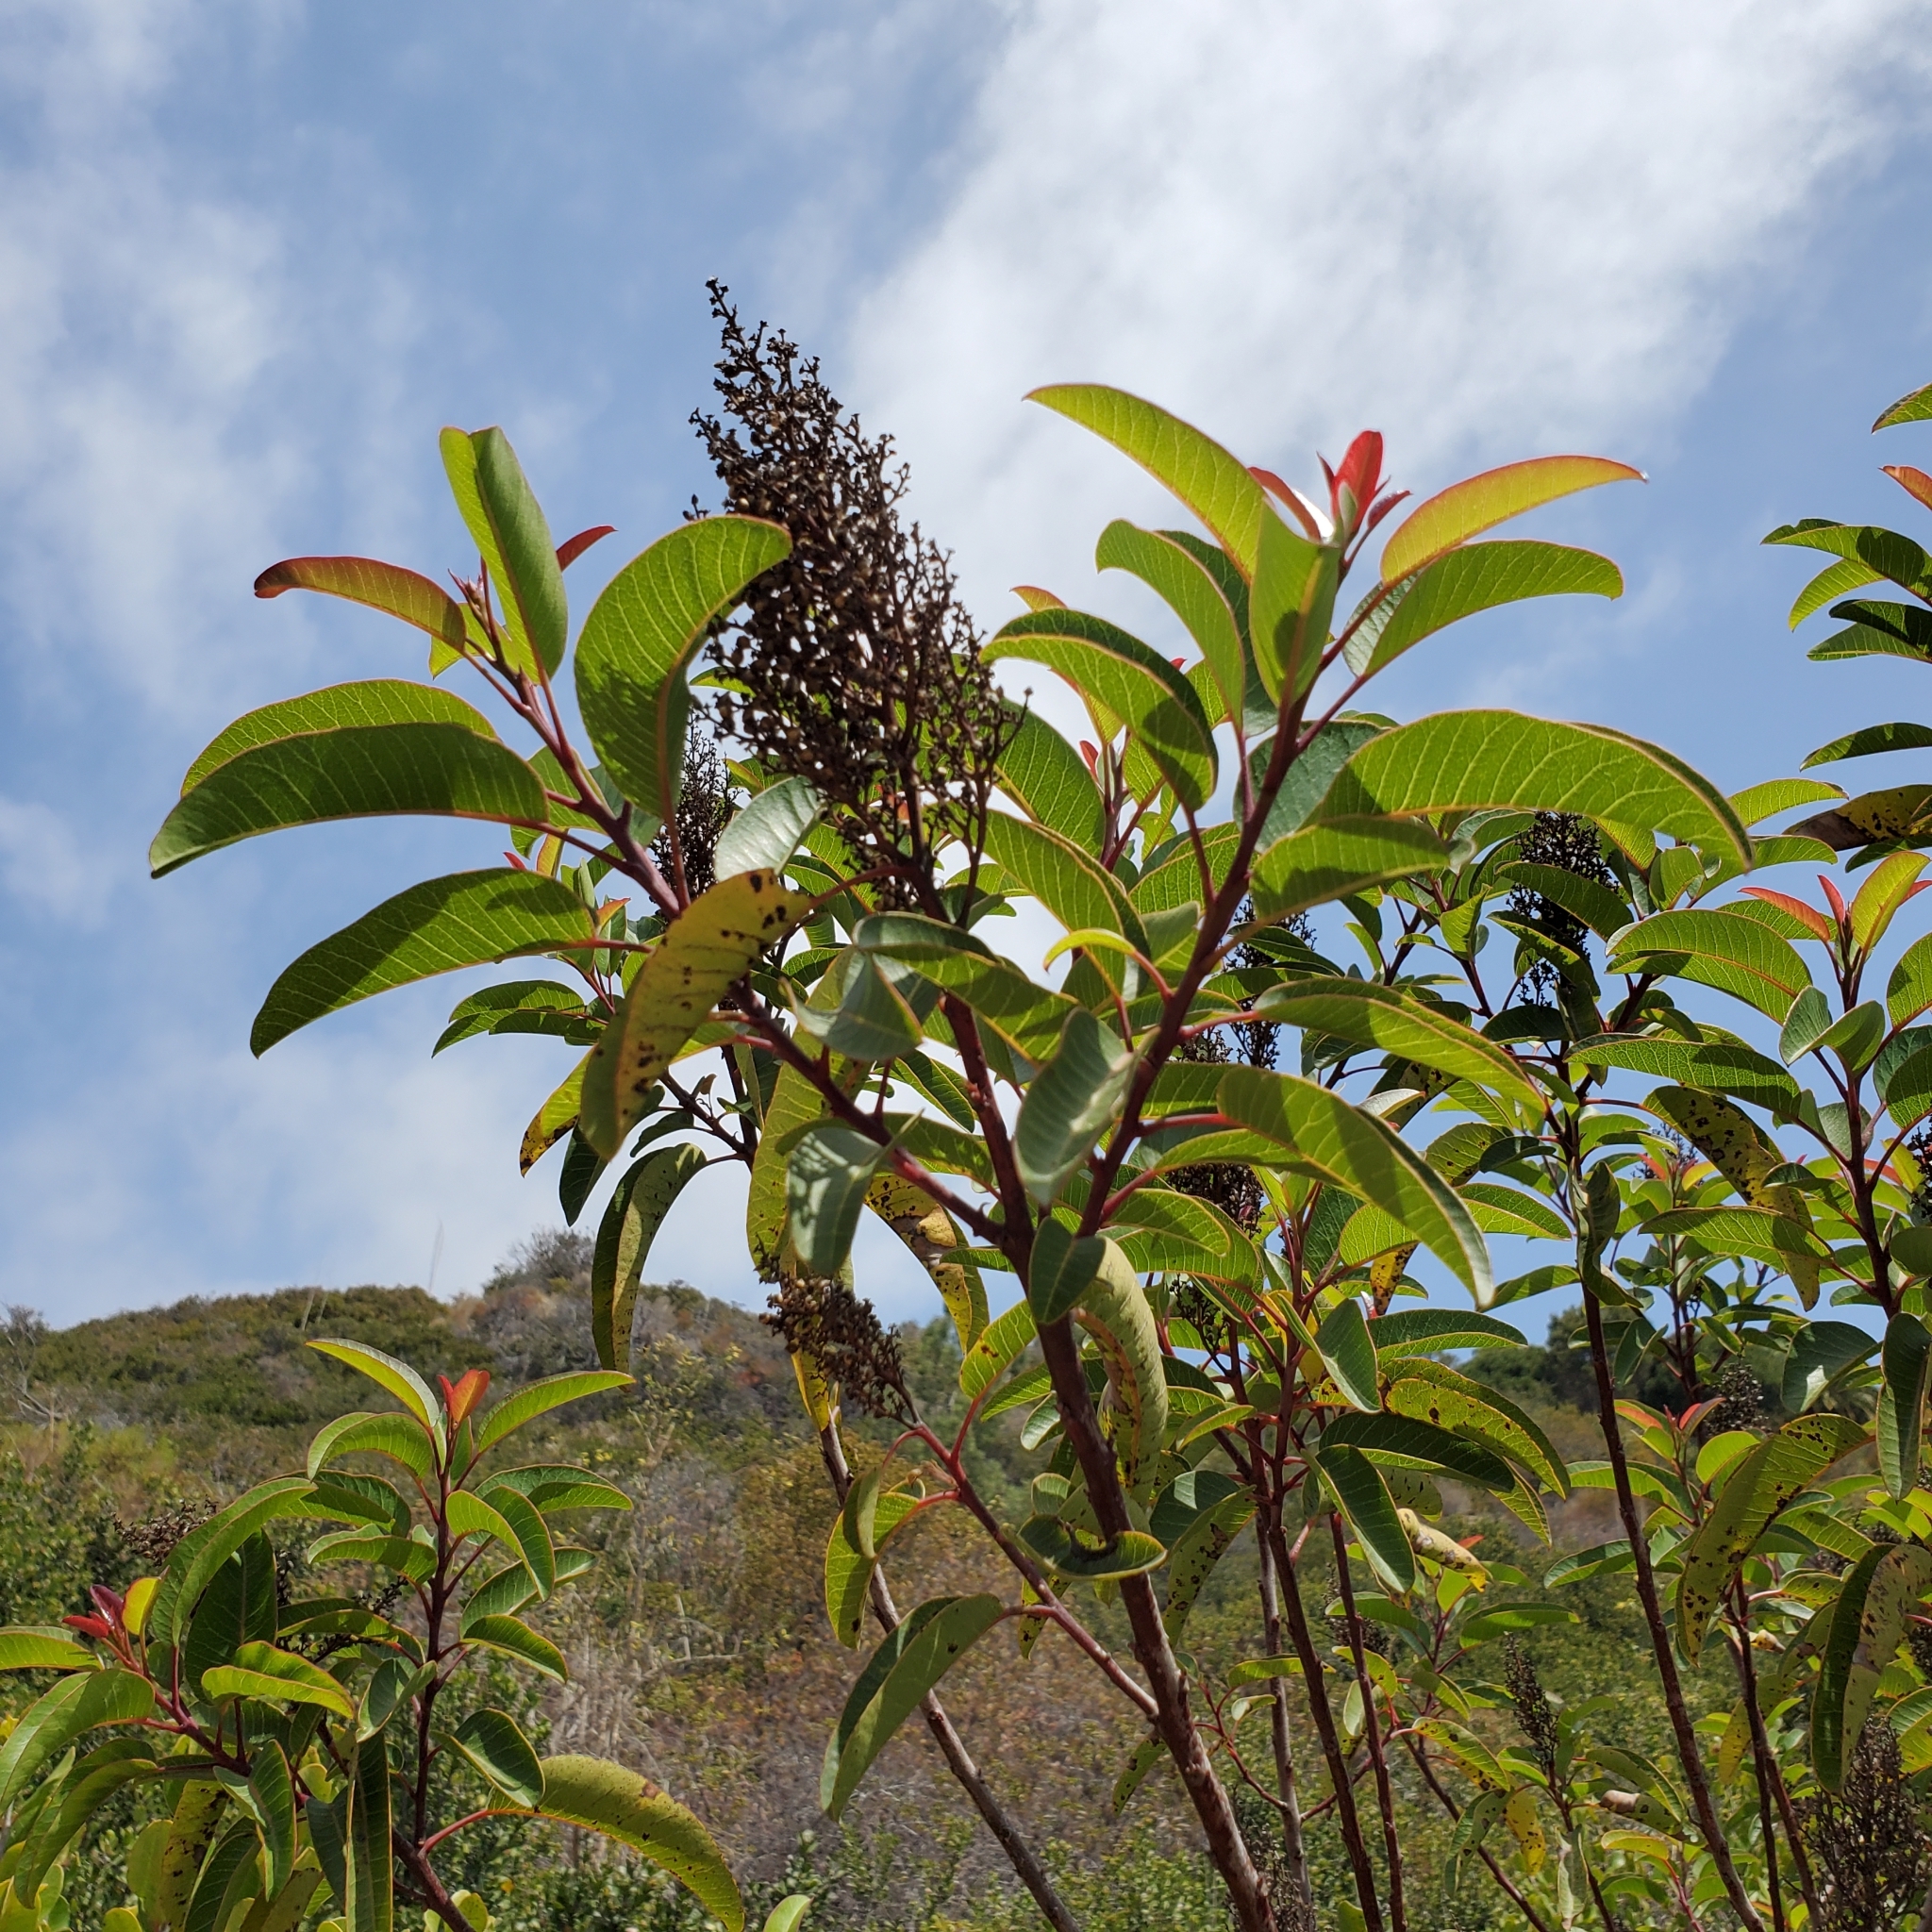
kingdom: Plantae
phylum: Tracheophyta
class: Magnoliopsida
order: Sapindales
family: Anacardiaceae
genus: Malosma
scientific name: Malosma laurina
